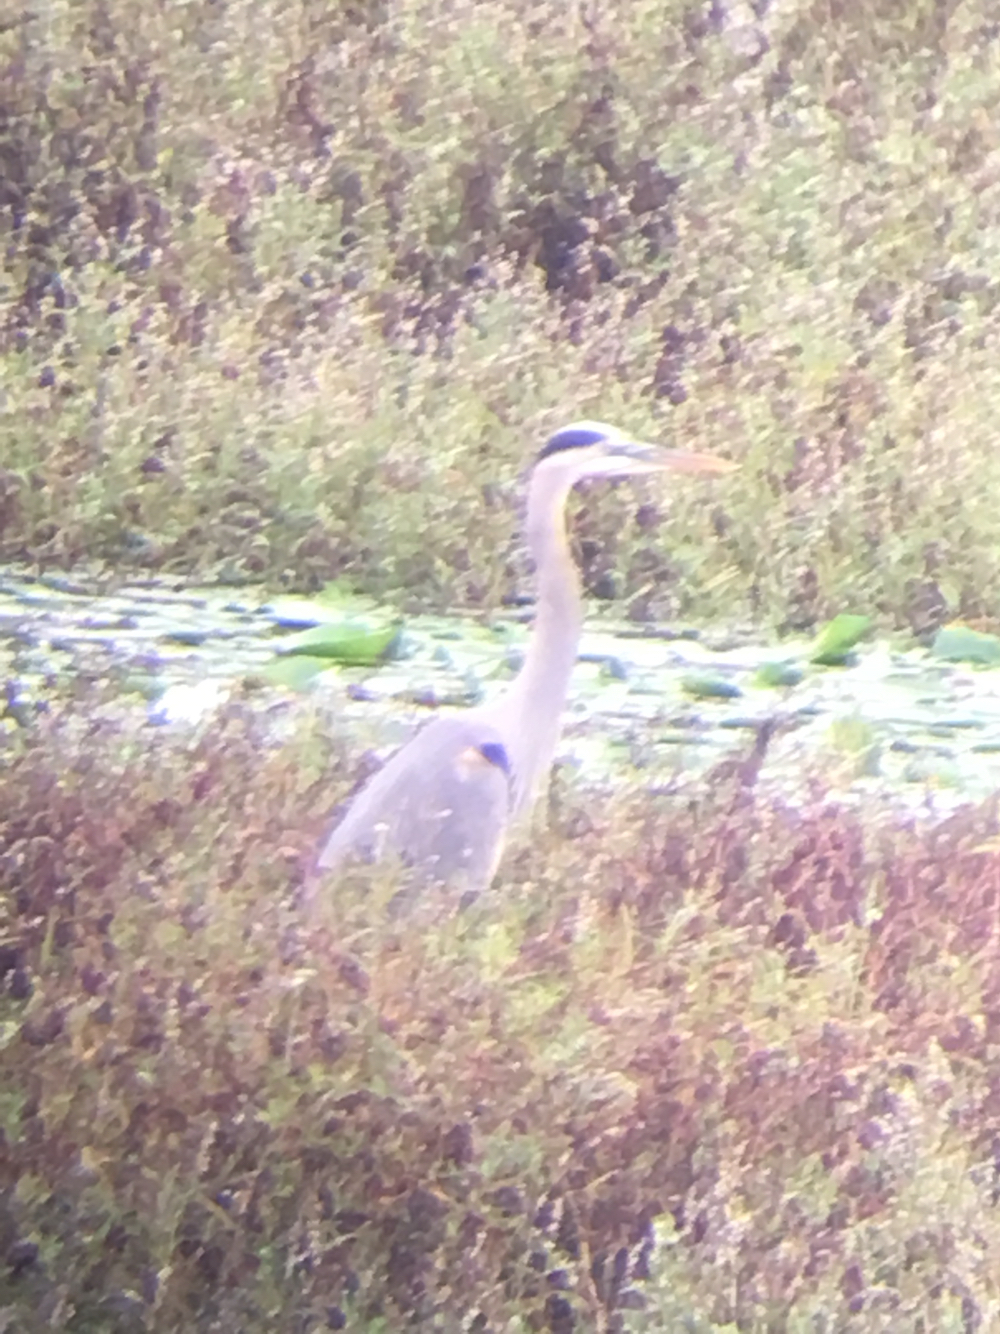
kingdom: Animalia
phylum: Chordata
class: Aves
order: Pelecaniformes
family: Ardeidae
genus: Ardea
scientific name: Ardea herodias
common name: Great blue heron
